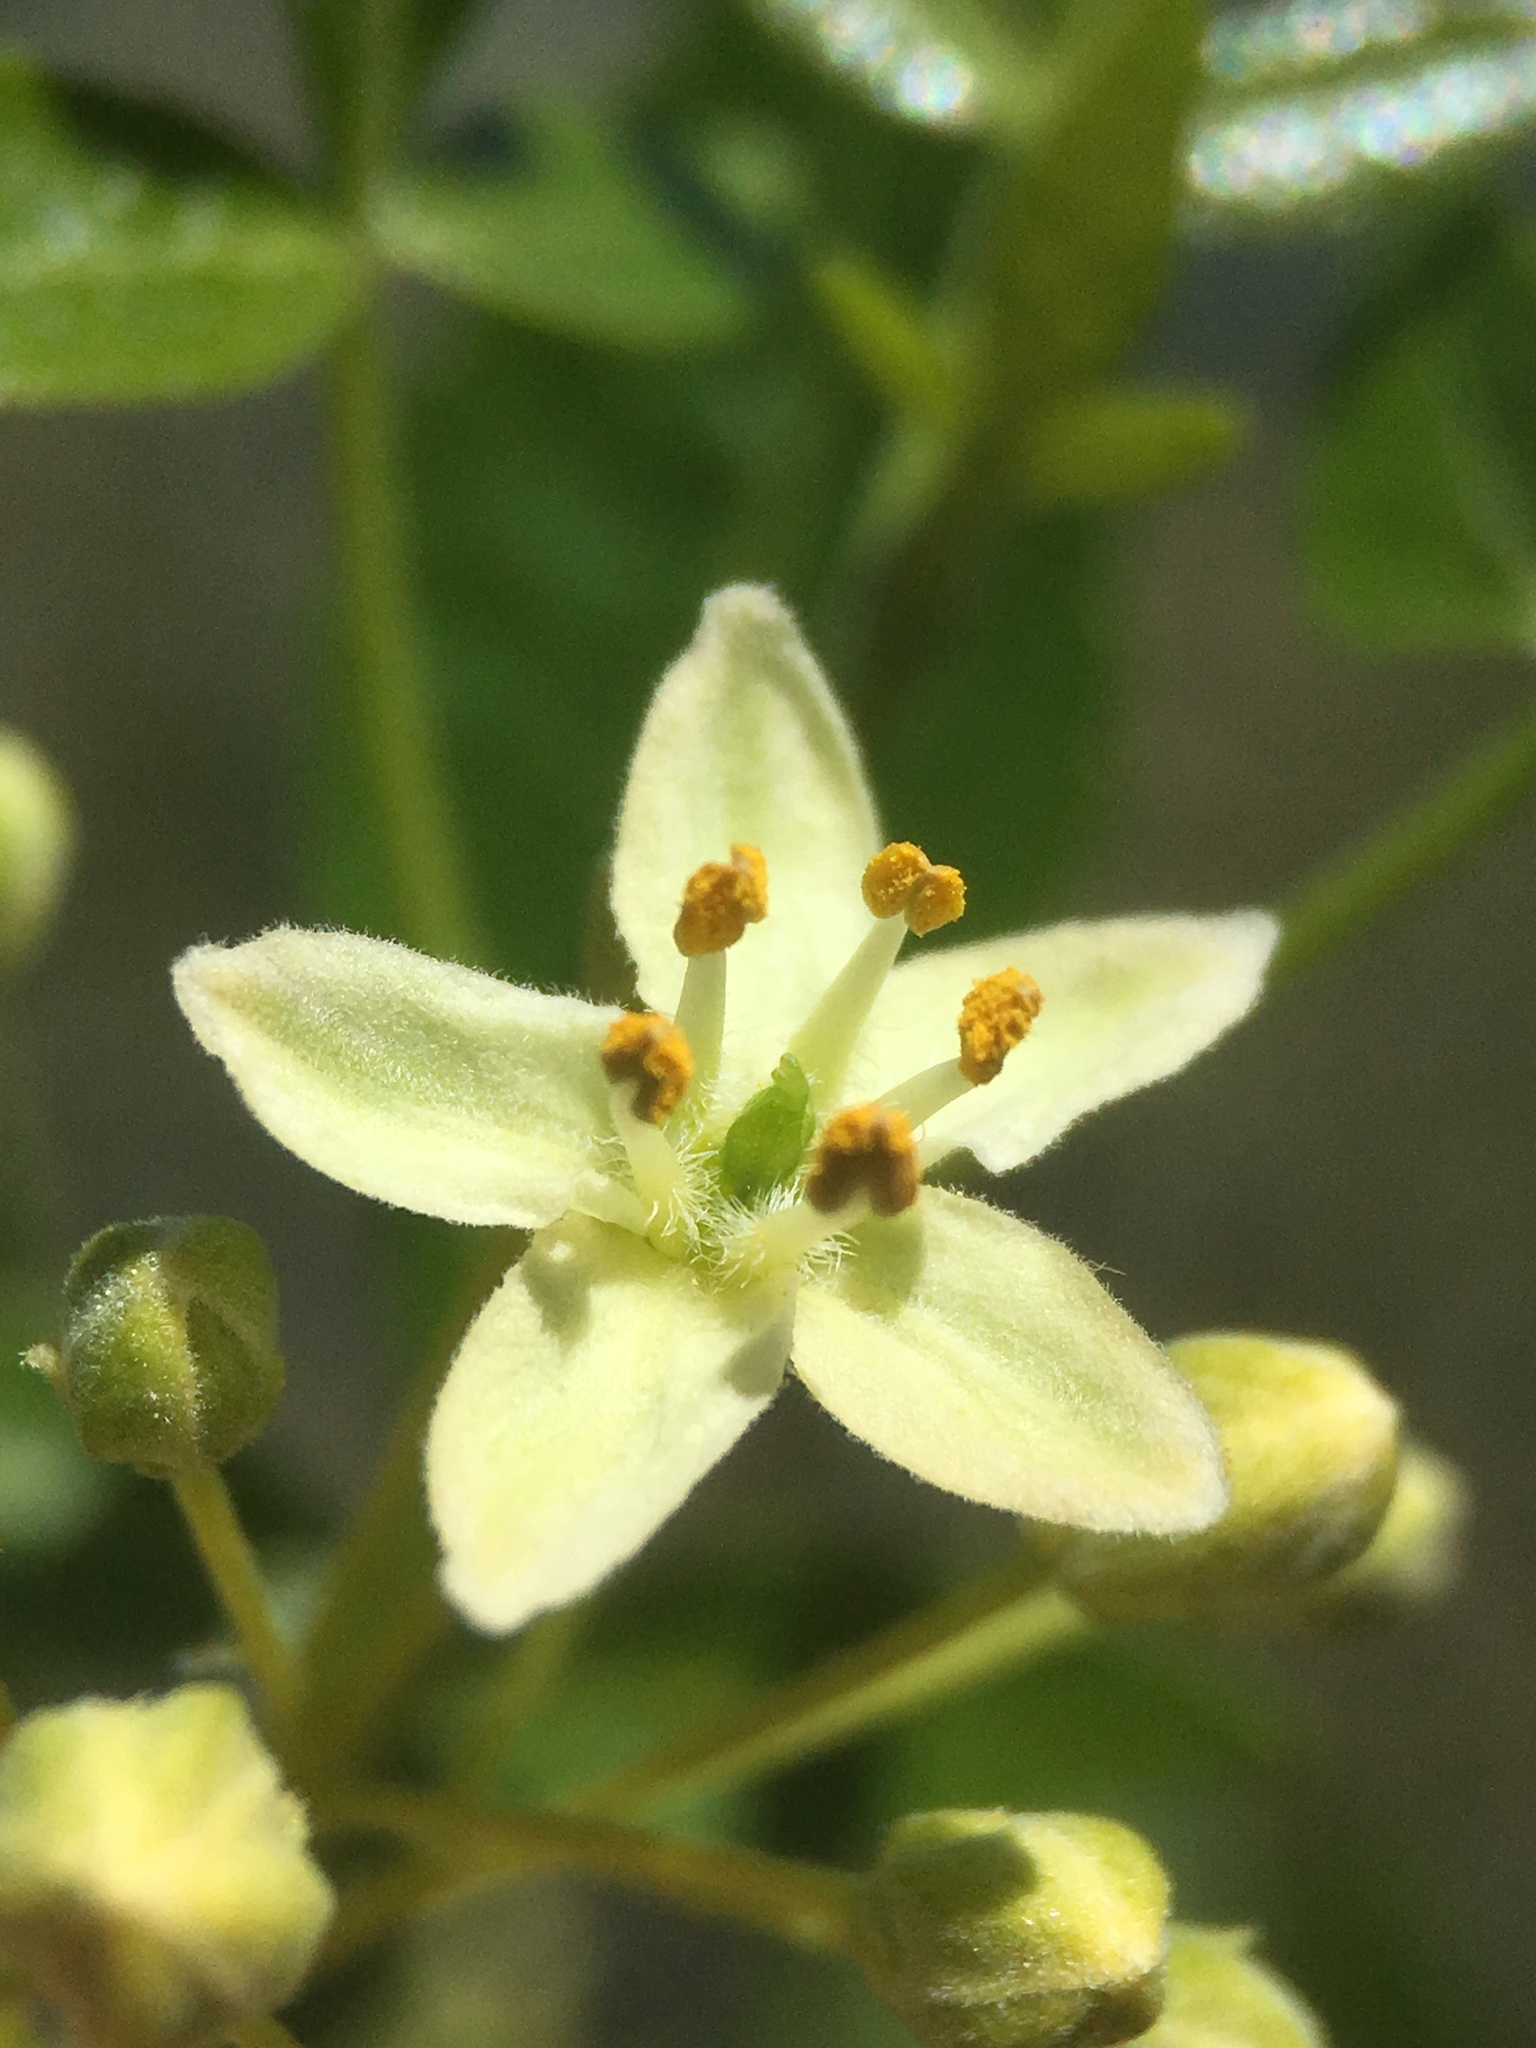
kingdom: Plantae
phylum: Tracheophyta
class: Magnoliopsida
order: Sapindales
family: Rutaceae
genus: Ptelea
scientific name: Ptelea crenulata
